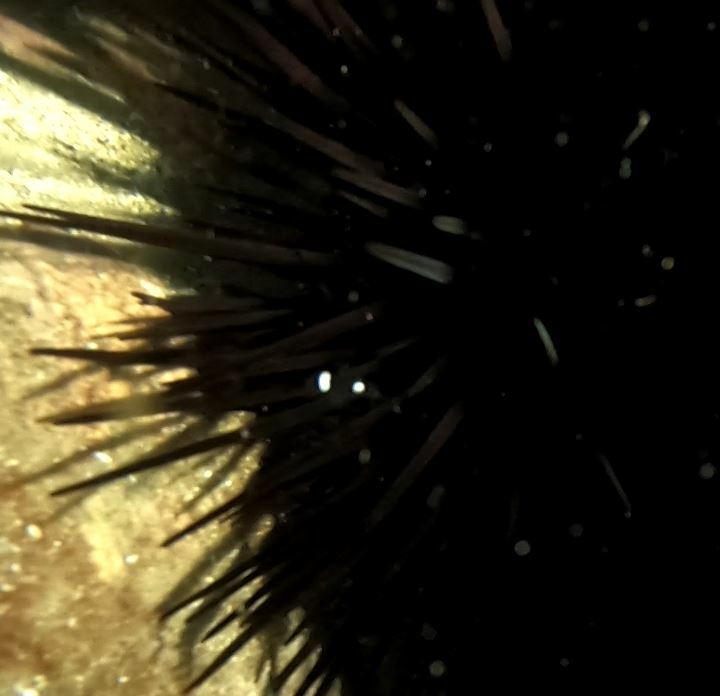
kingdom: Animalia
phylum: Chordata
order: Perciformes
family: Pomacentridae
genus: Dascyllus
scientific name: Dascyllus trimaculatus
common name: Threespot dascyllus
